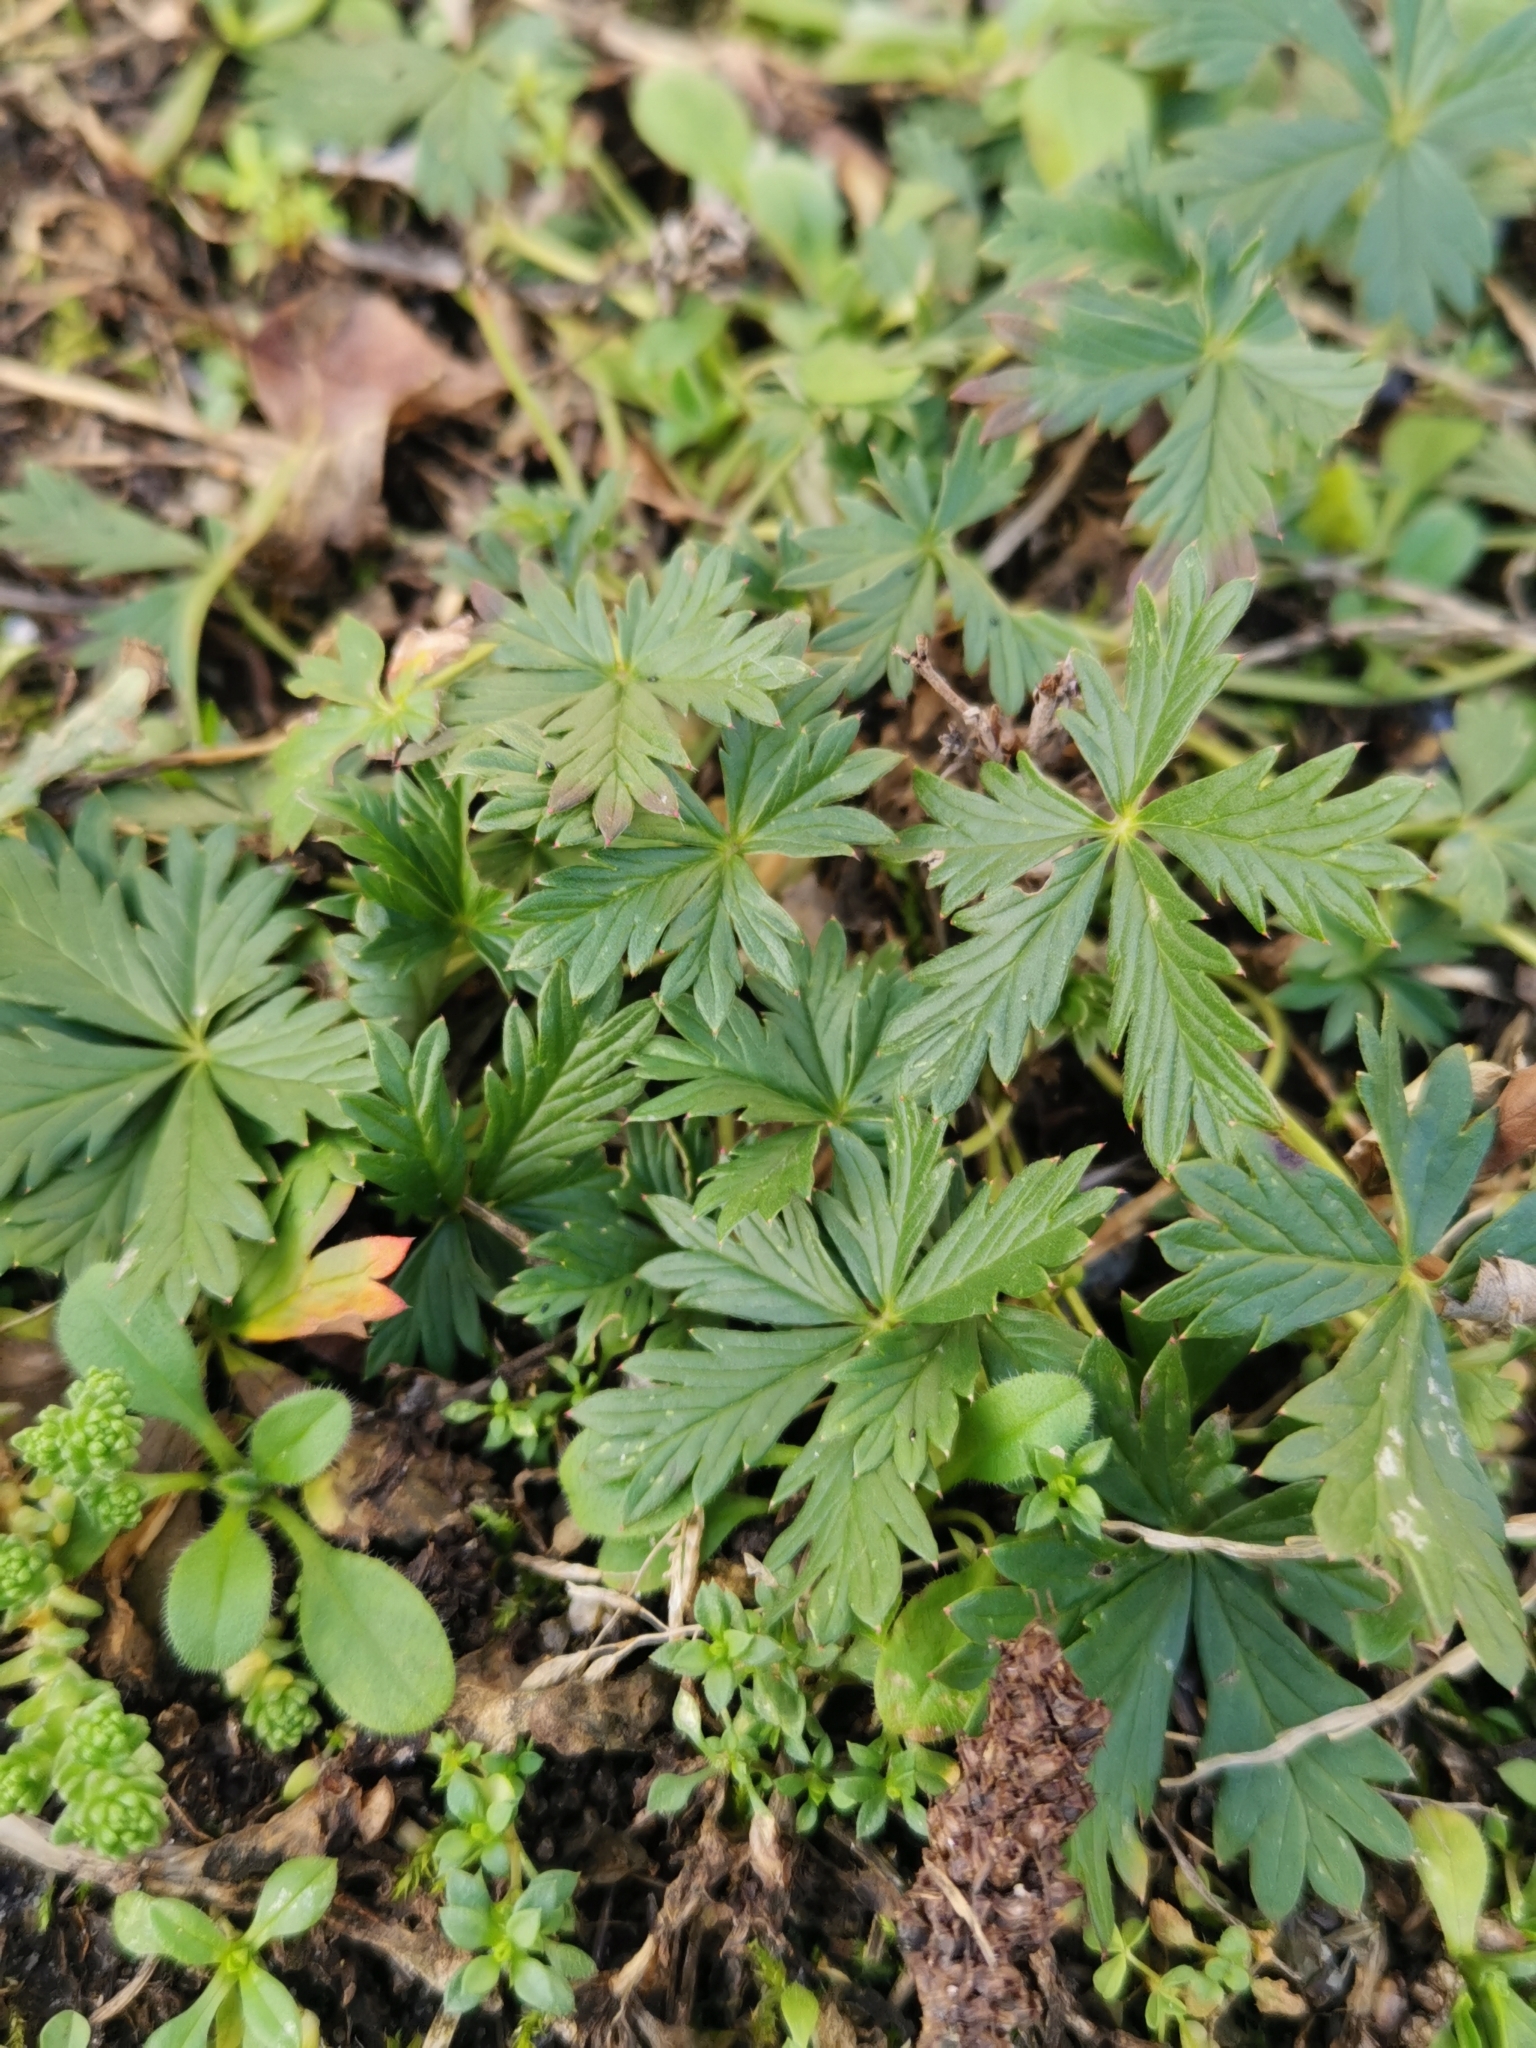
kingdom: Plantae
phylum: Tracheophyta
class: Magnoliopsida
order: Rosales
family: Rosaceae
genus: Potentilla
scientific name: Potentilla argentea
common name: Hoary cinquefoil
